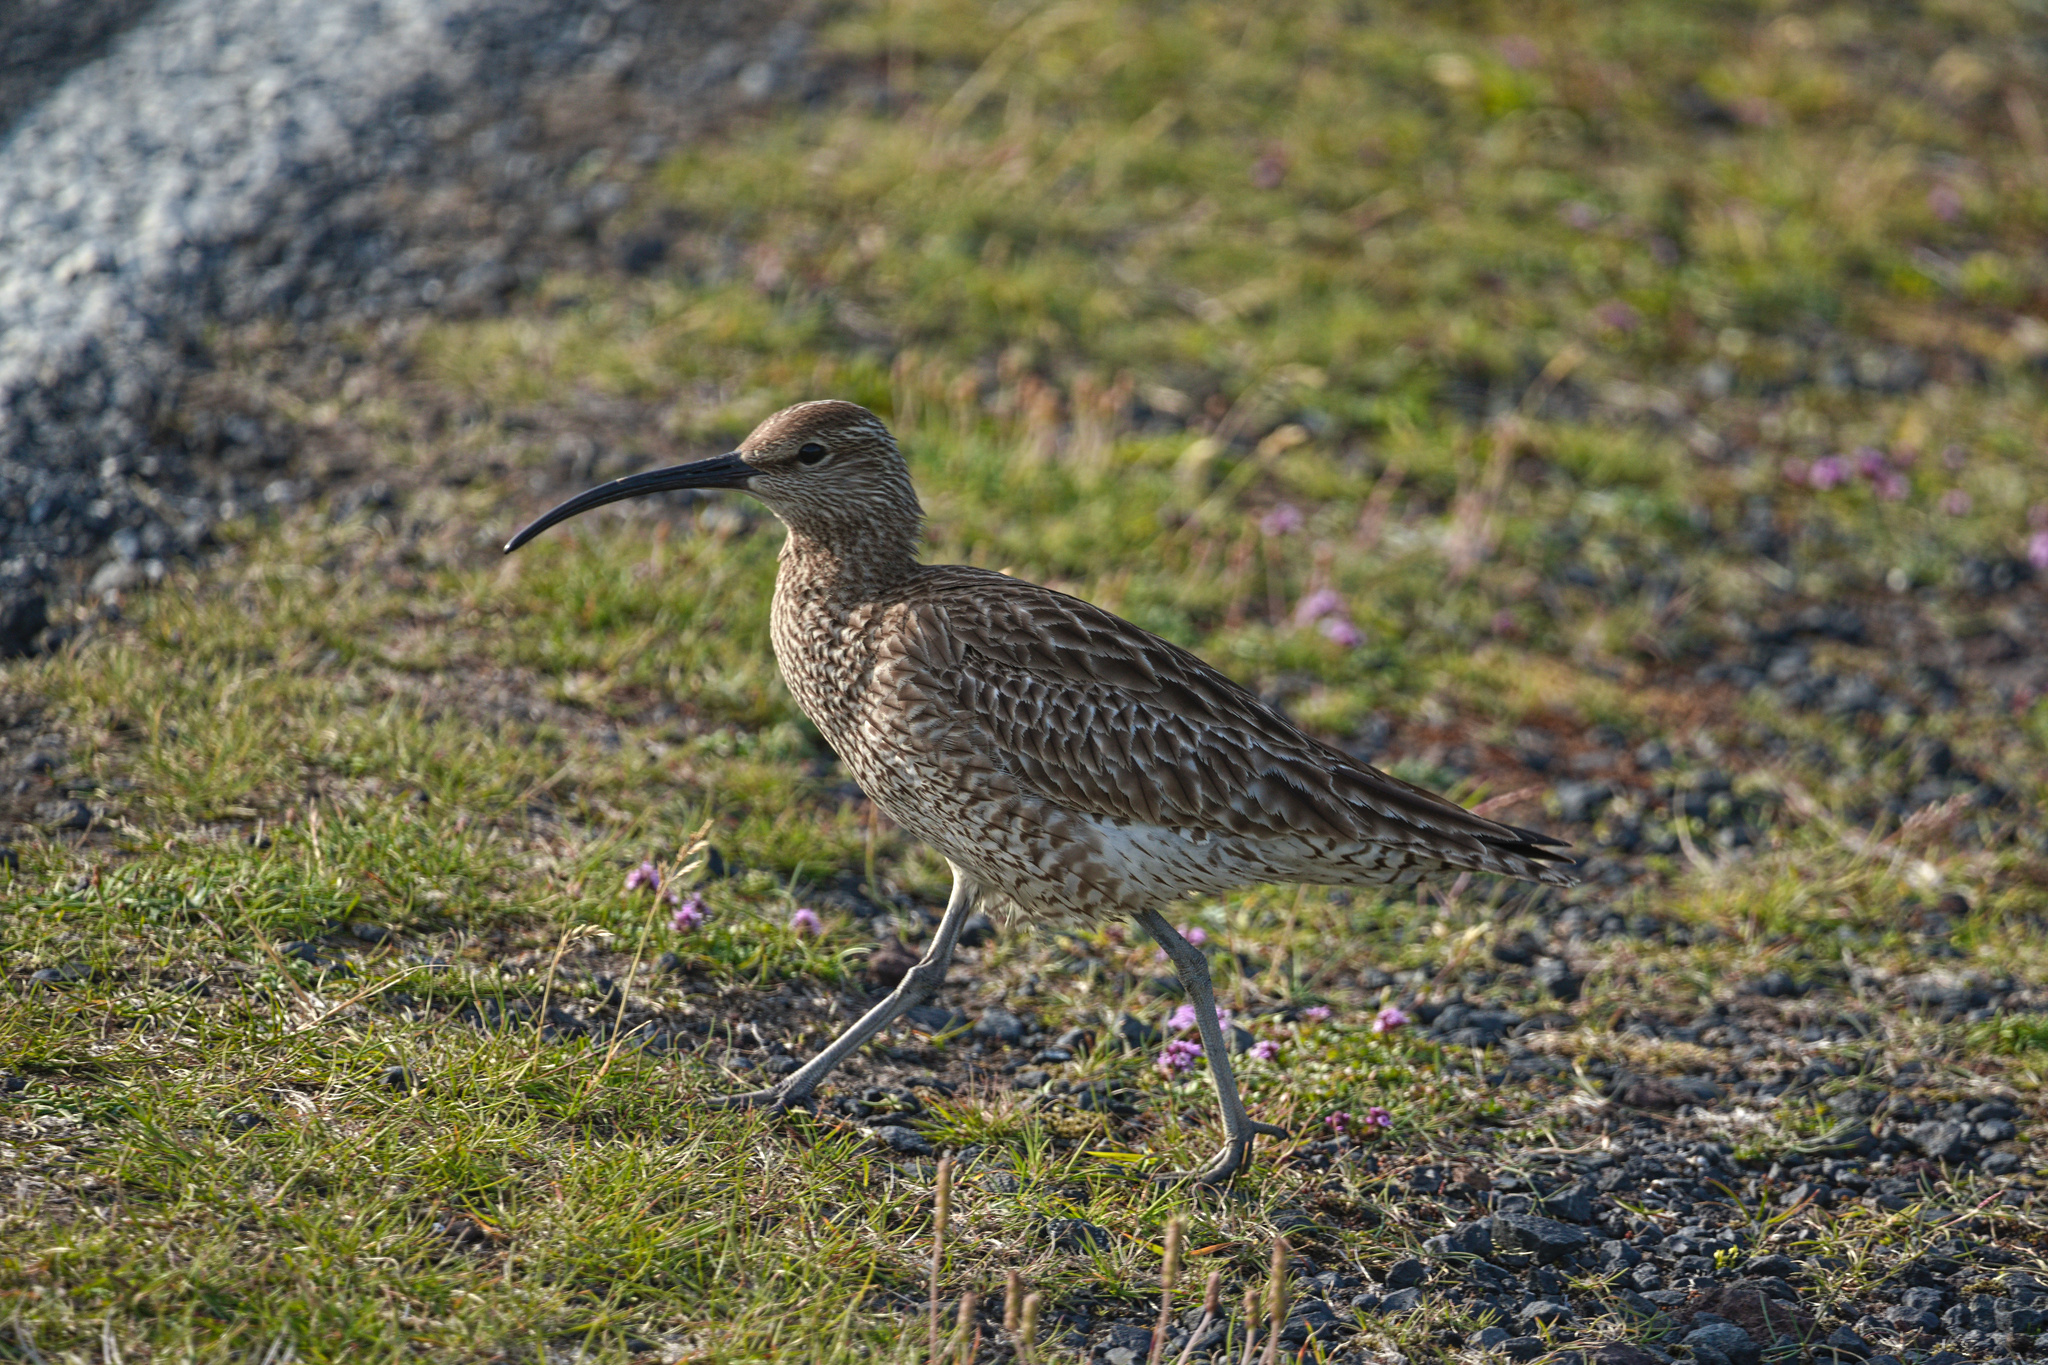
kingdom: Animalia
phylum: Chordata
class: Aves
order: Charadriiformes
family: Scolopacidae
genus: Numenius
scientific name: Numenius phaeopus
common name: Whimbrel
